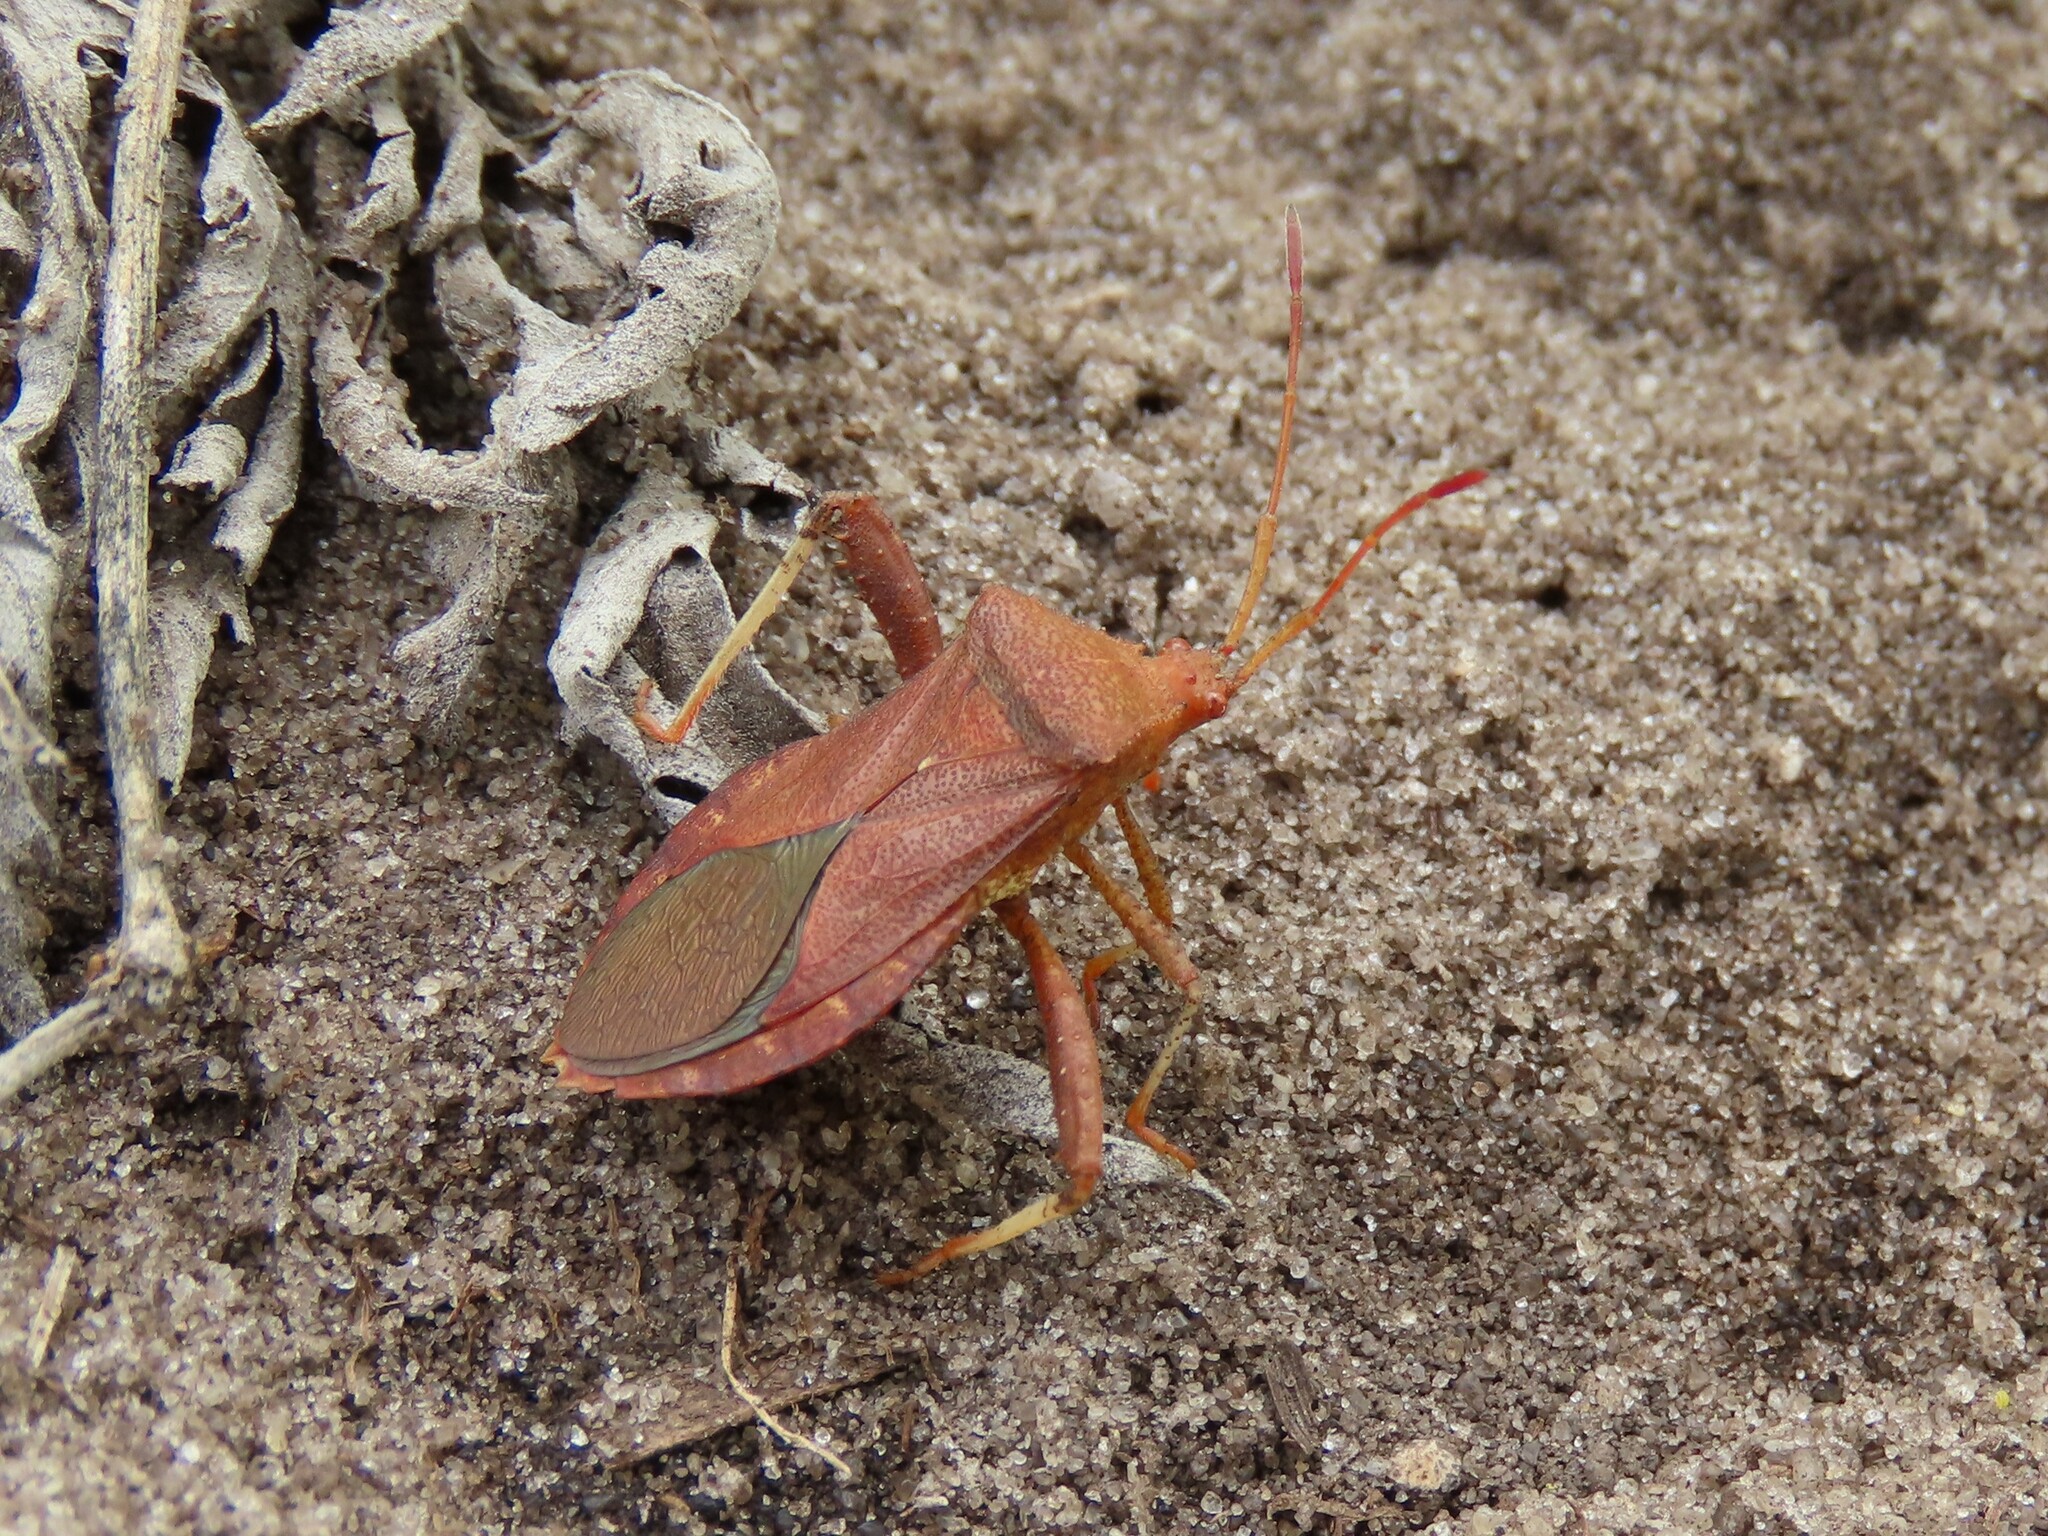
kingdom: Animalia
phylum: Arthropoda
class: Insecta
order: Hemiptera
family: Coreidae
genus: Euthochtha
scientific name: Euthochtha galeator
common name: Helmeted squash bug
